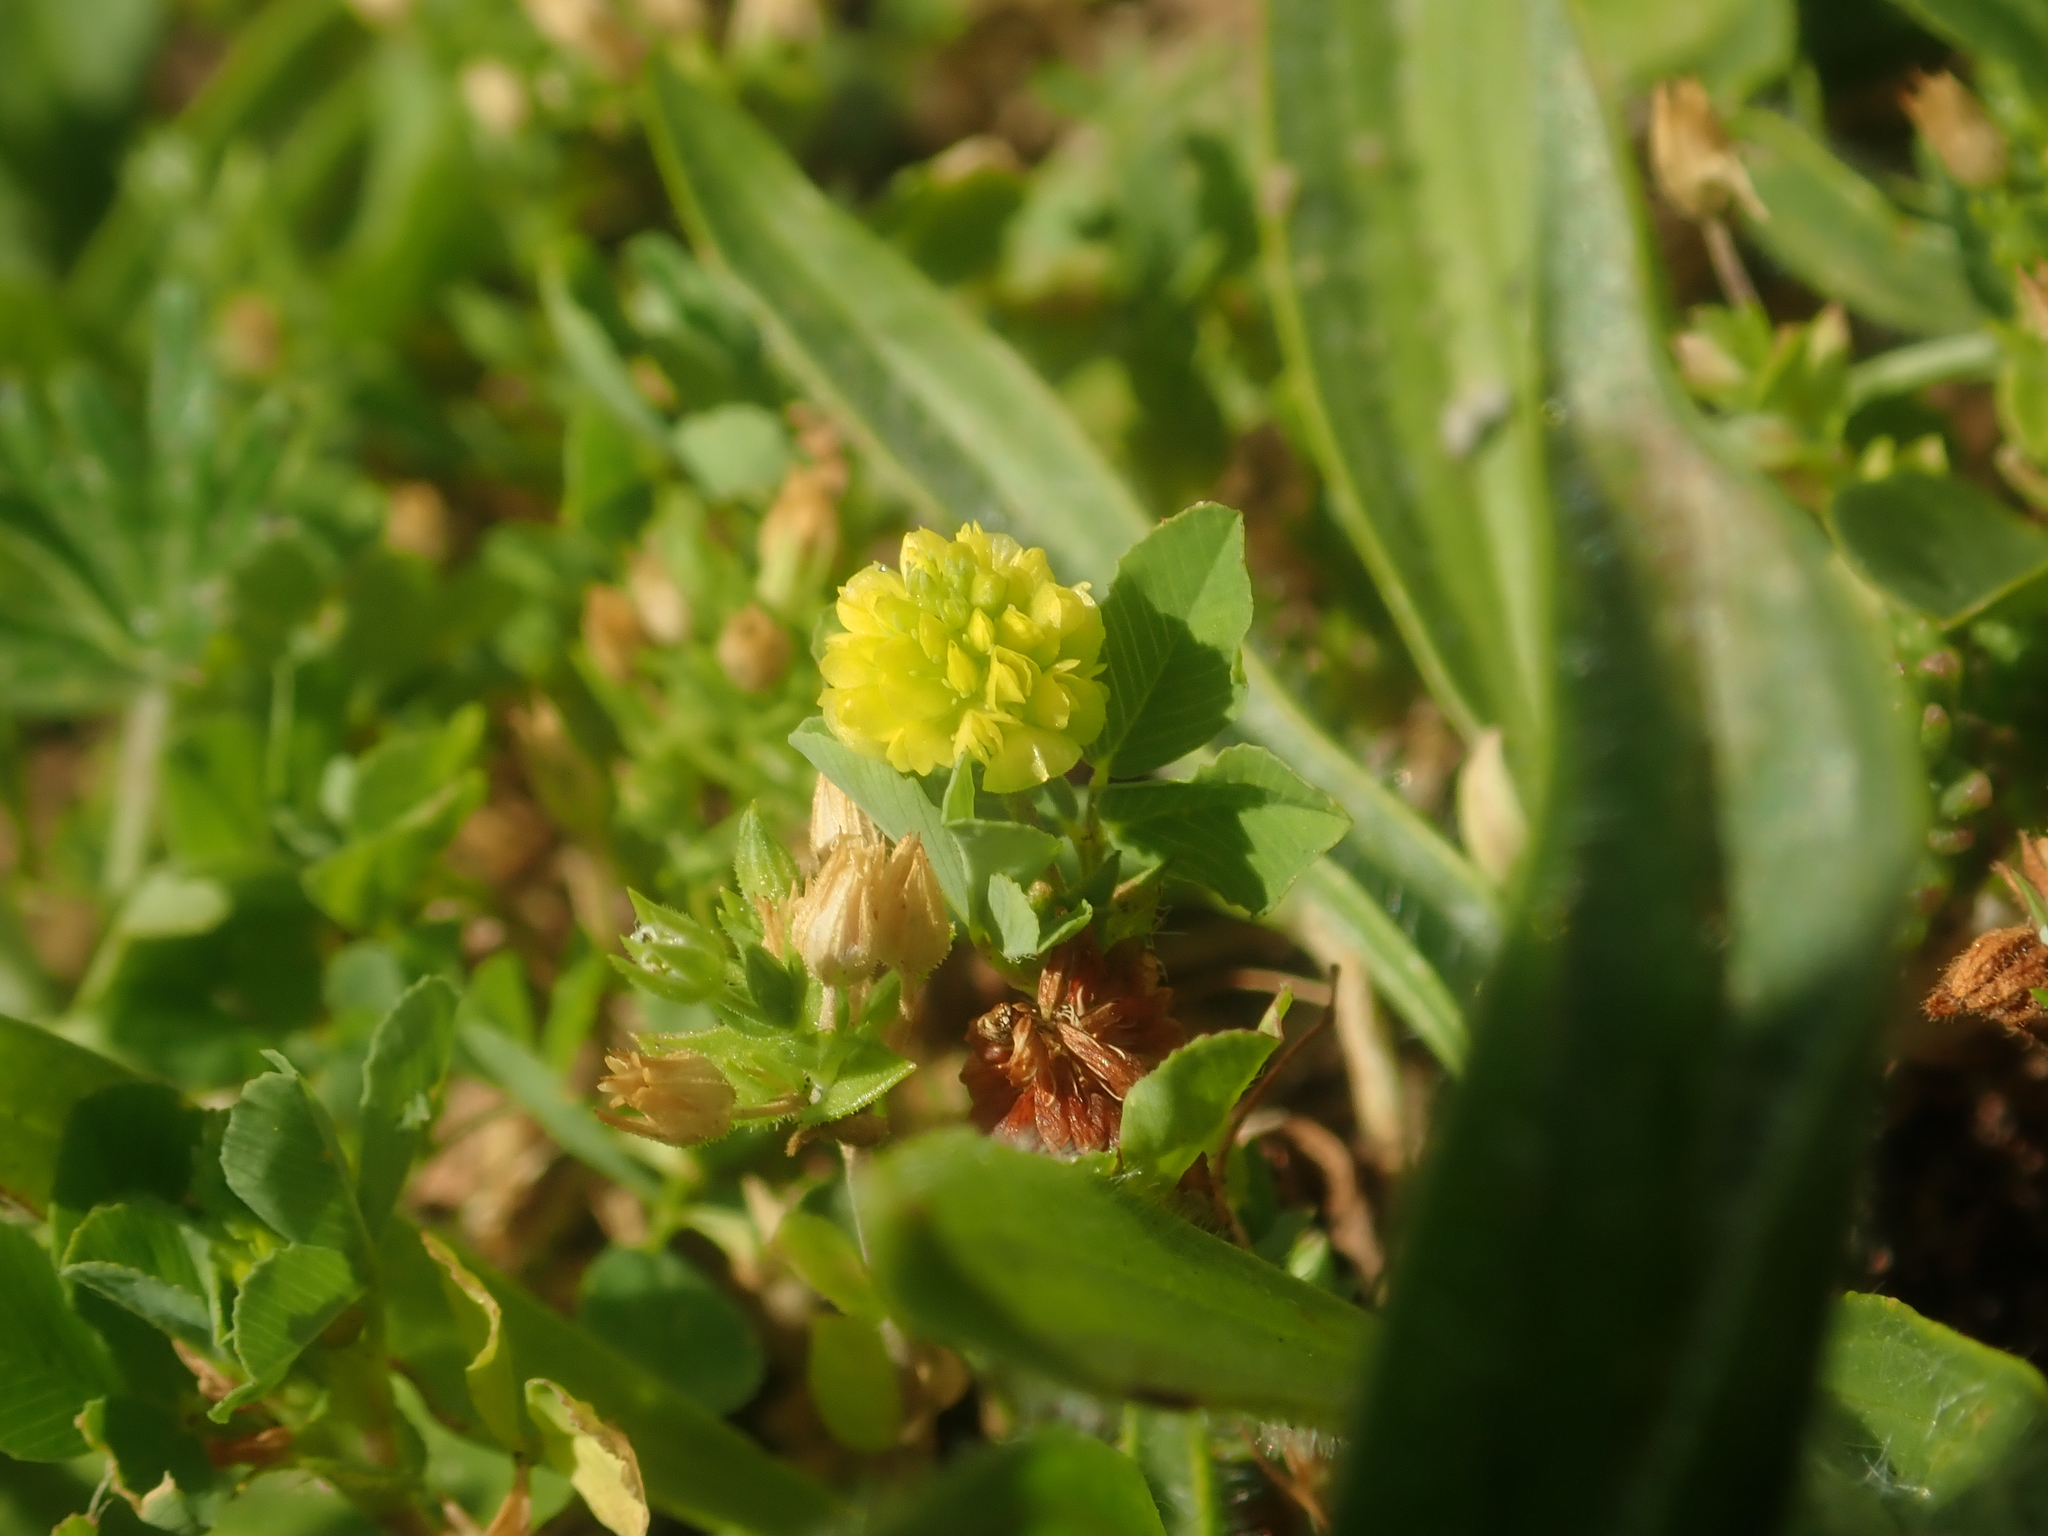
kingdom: Plantae
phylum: Tracheophyta
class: Magnoliopsida
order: Fabales
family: Fabaceae
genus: Trifolium
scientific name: Trifolium campestre
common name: Field clover
